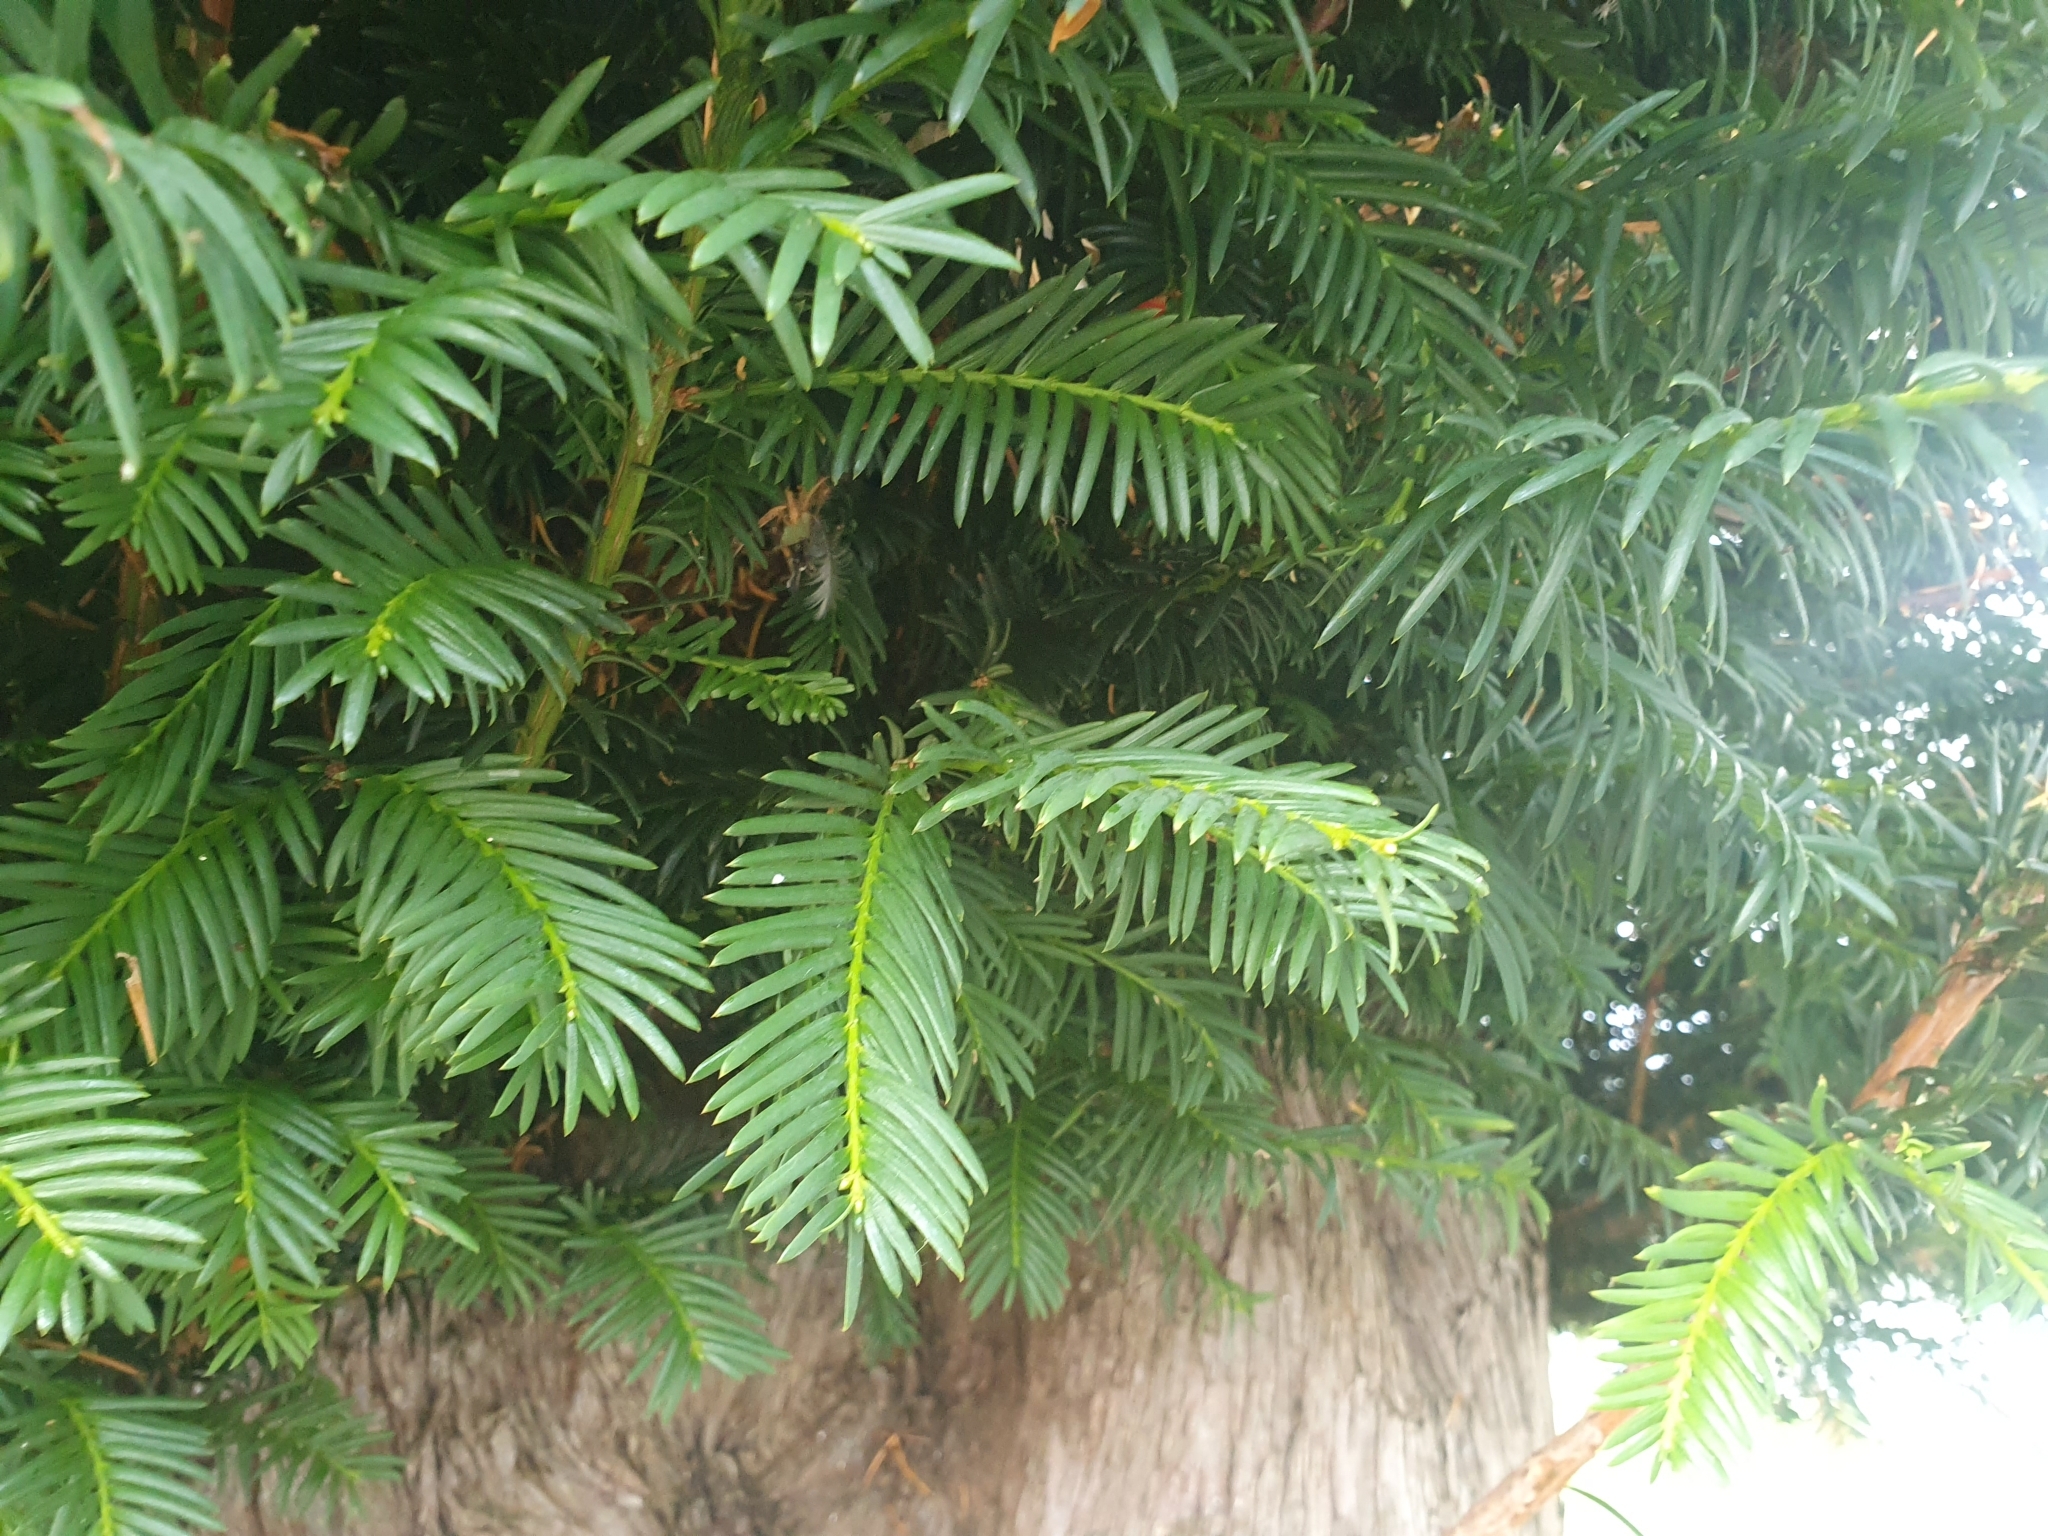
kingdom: Plantae
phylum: Tracheophyta
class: Pinopsida
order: Pinales
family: Taxaceae
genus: Taxus
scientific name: Taxus baccata
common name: Yew
